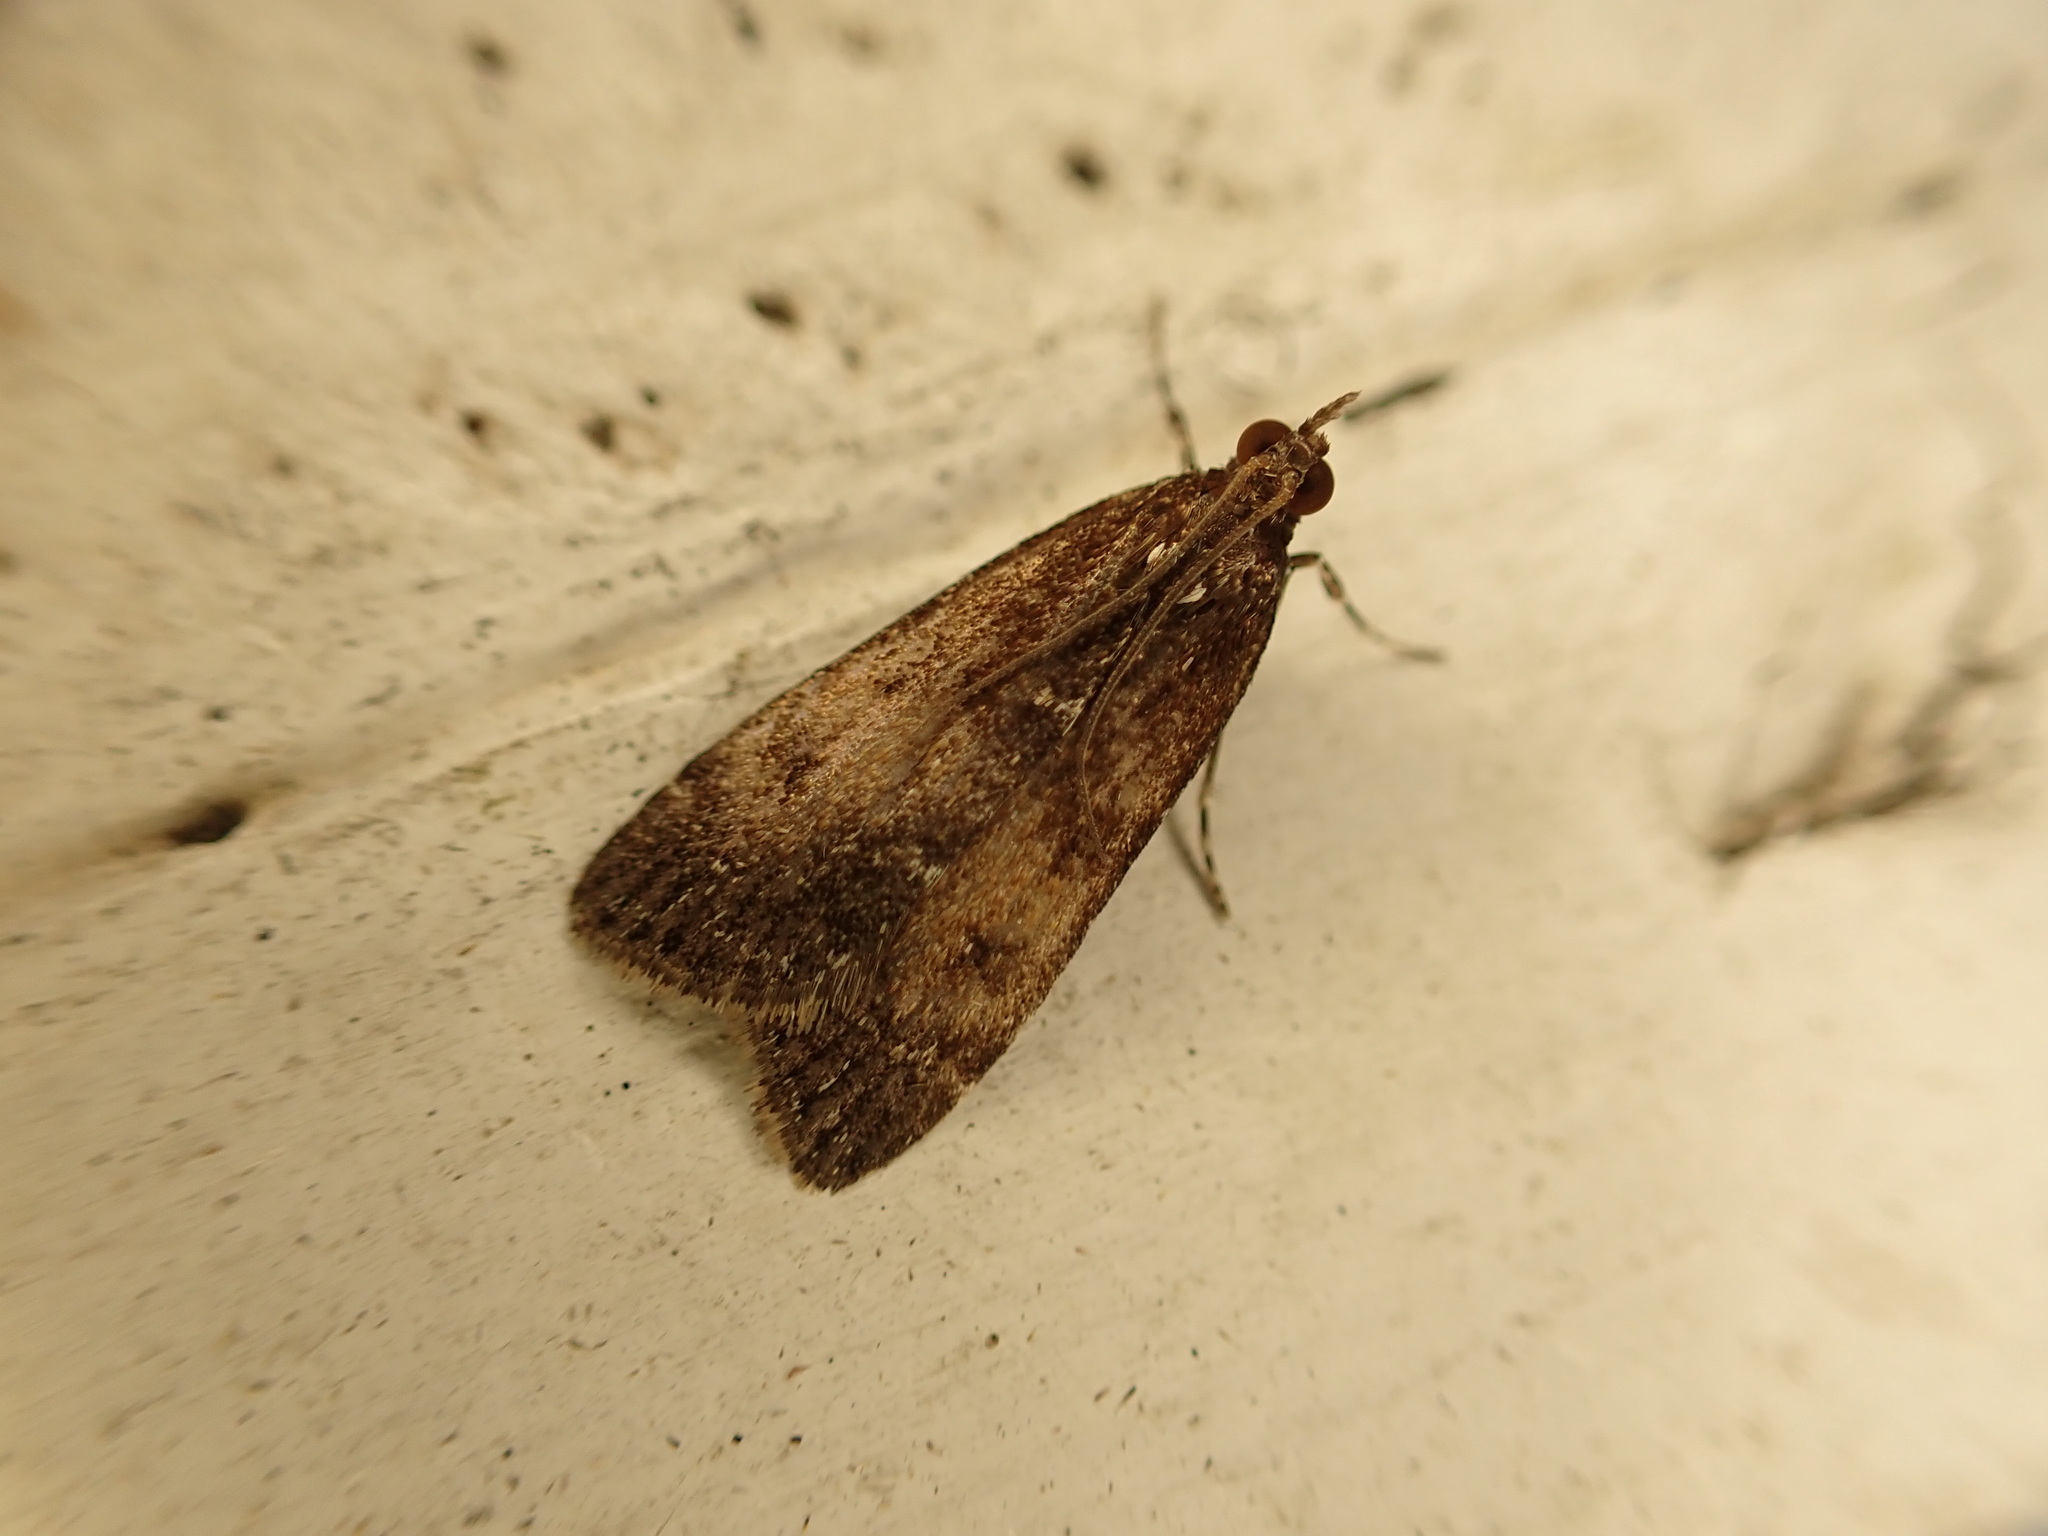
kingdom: Animalia
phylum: Arthropoda
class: Insecta
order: Lepidoptera
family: Crambidae
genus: Eudonia
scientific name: Eudonia asterisca
